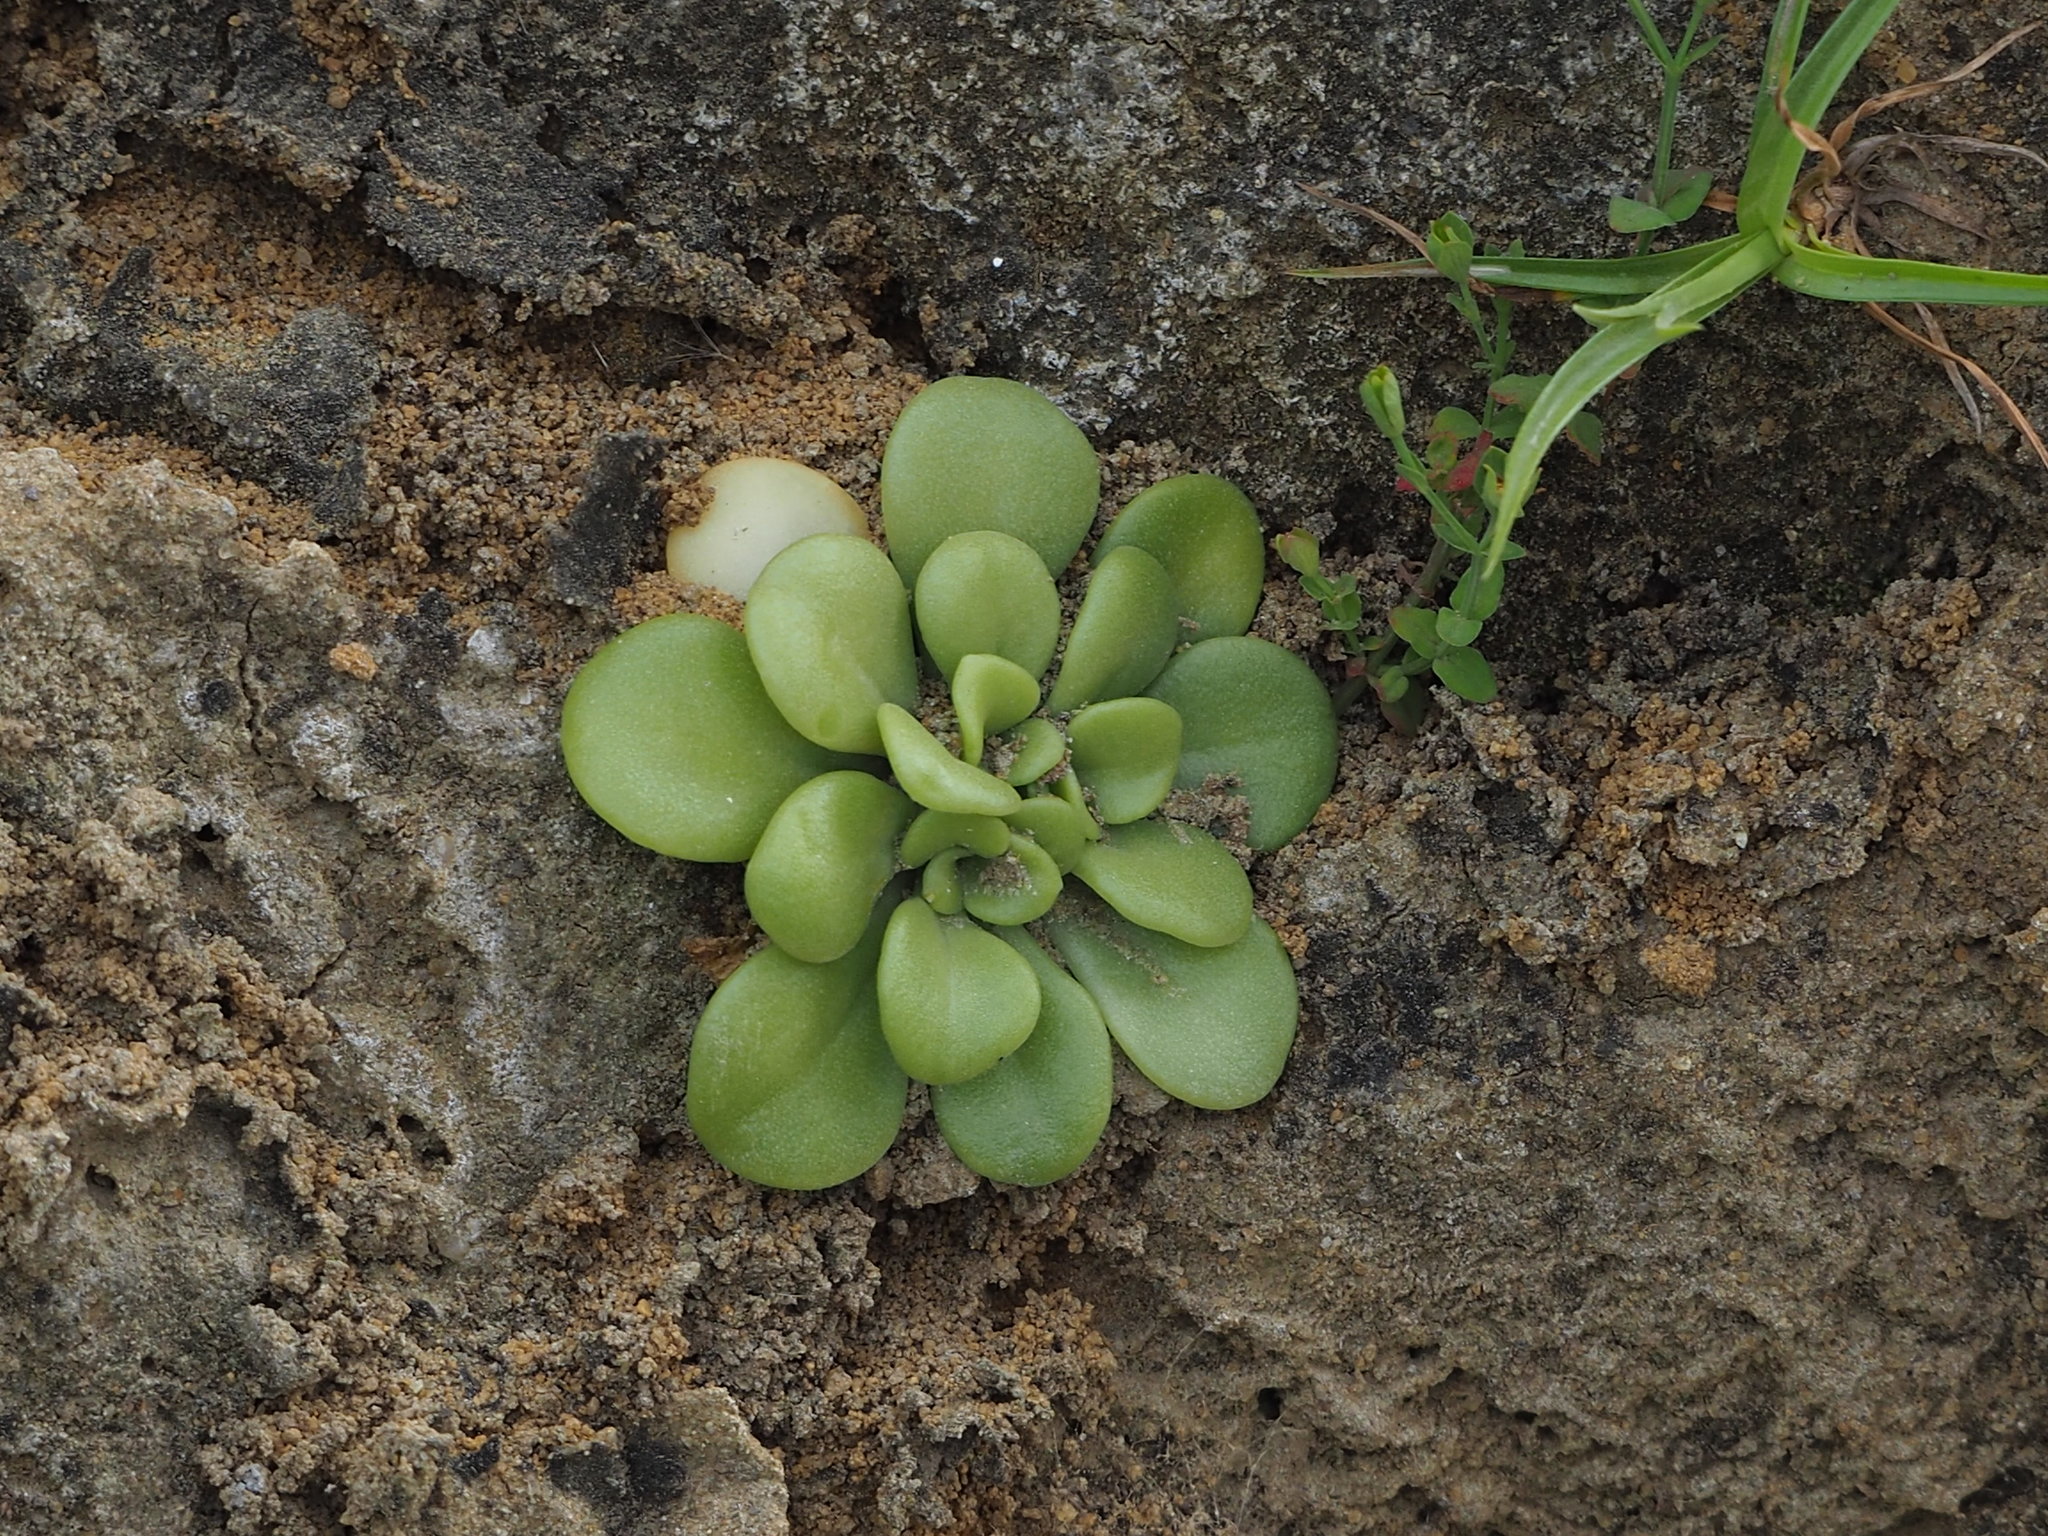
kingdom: Plantae
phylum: Tracheophyta
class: Magnoliopsida
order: Saxifragales
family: Crassulaceae
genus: Sedum
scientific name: Sedum formosanum
